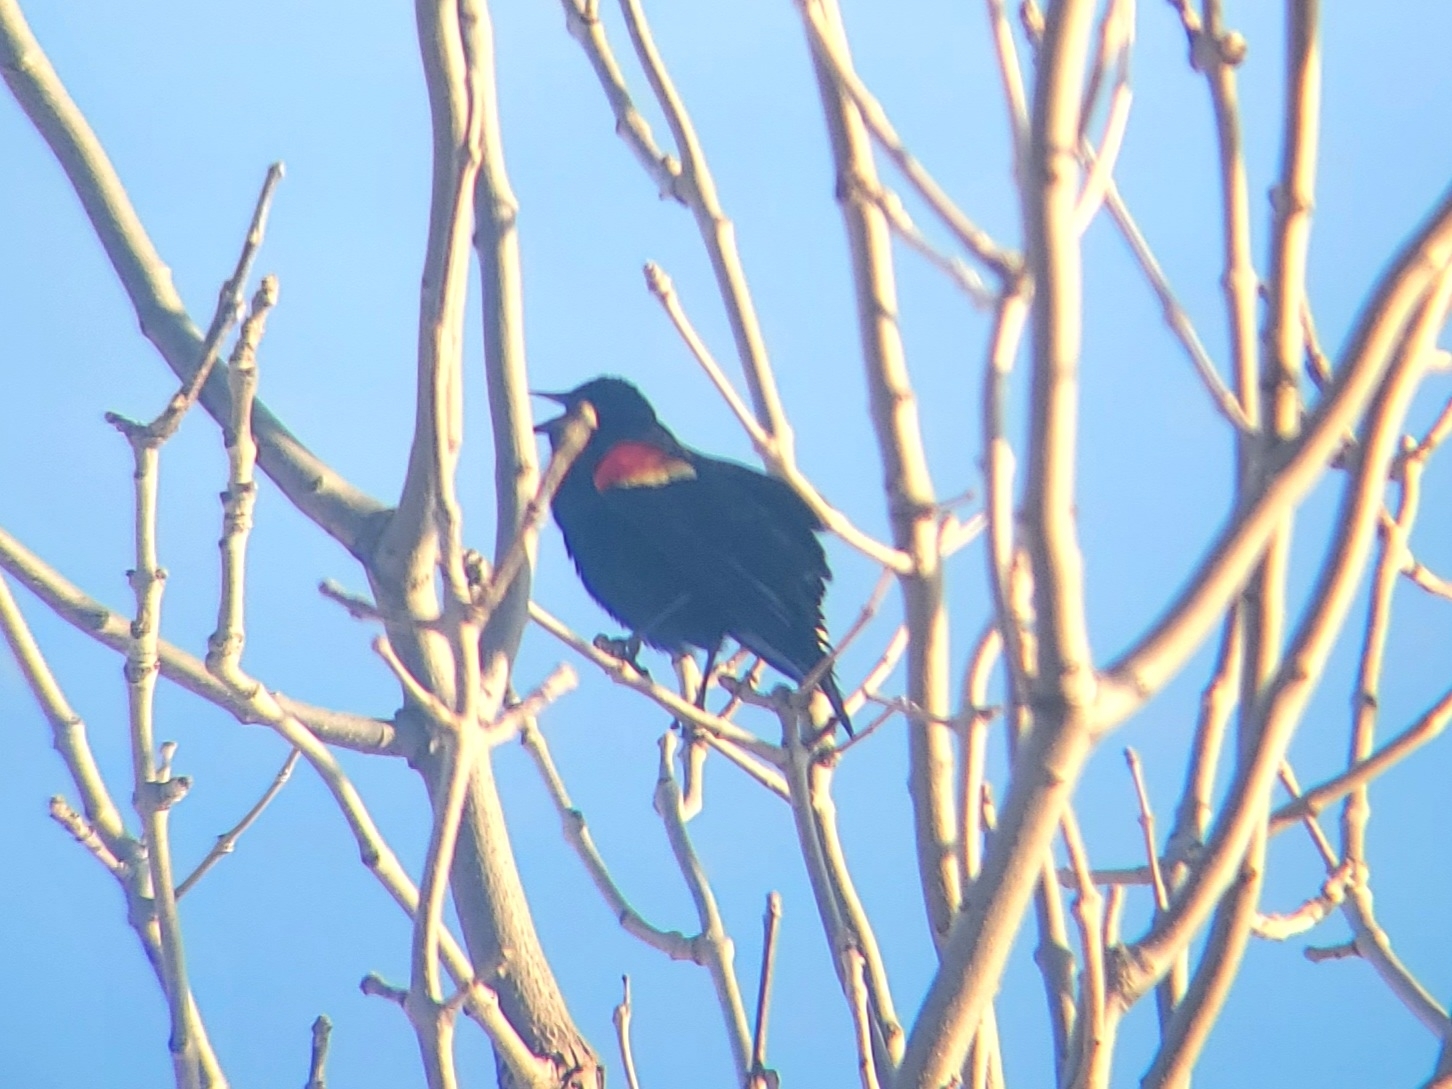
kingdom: Animalia
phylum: Chordata
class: Aves
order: Passeriformes
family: Icteridae
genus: Agelaius
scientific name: Agelaius phoeniceus
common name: Red-winged blackbird
